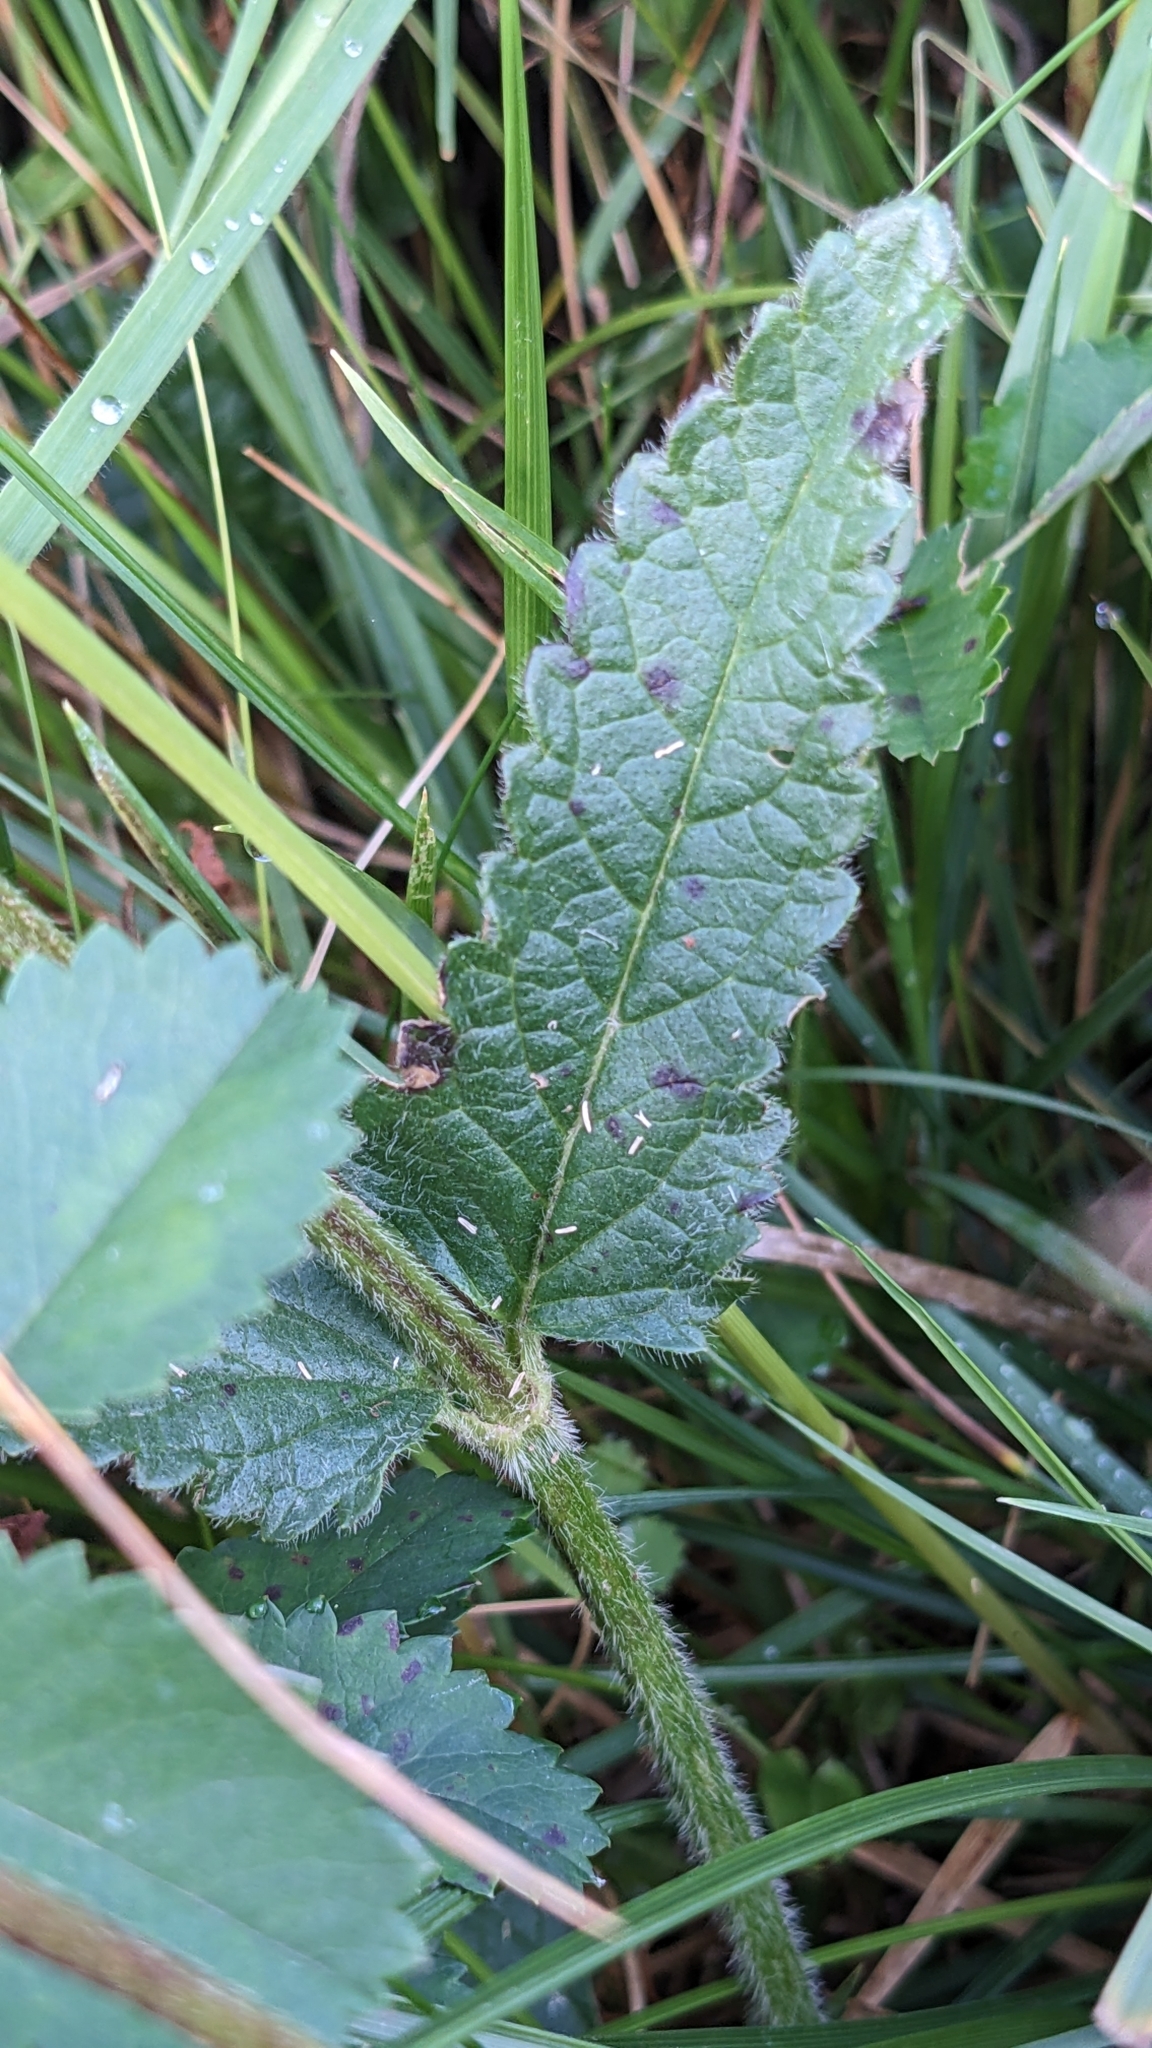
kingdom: Plantae
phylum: Tracheophyta
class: Magnoliopsida
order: Lamiales
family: Lamiaceae
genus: Betonica
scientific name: Betonica officinalis
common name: Bishop's-wort
